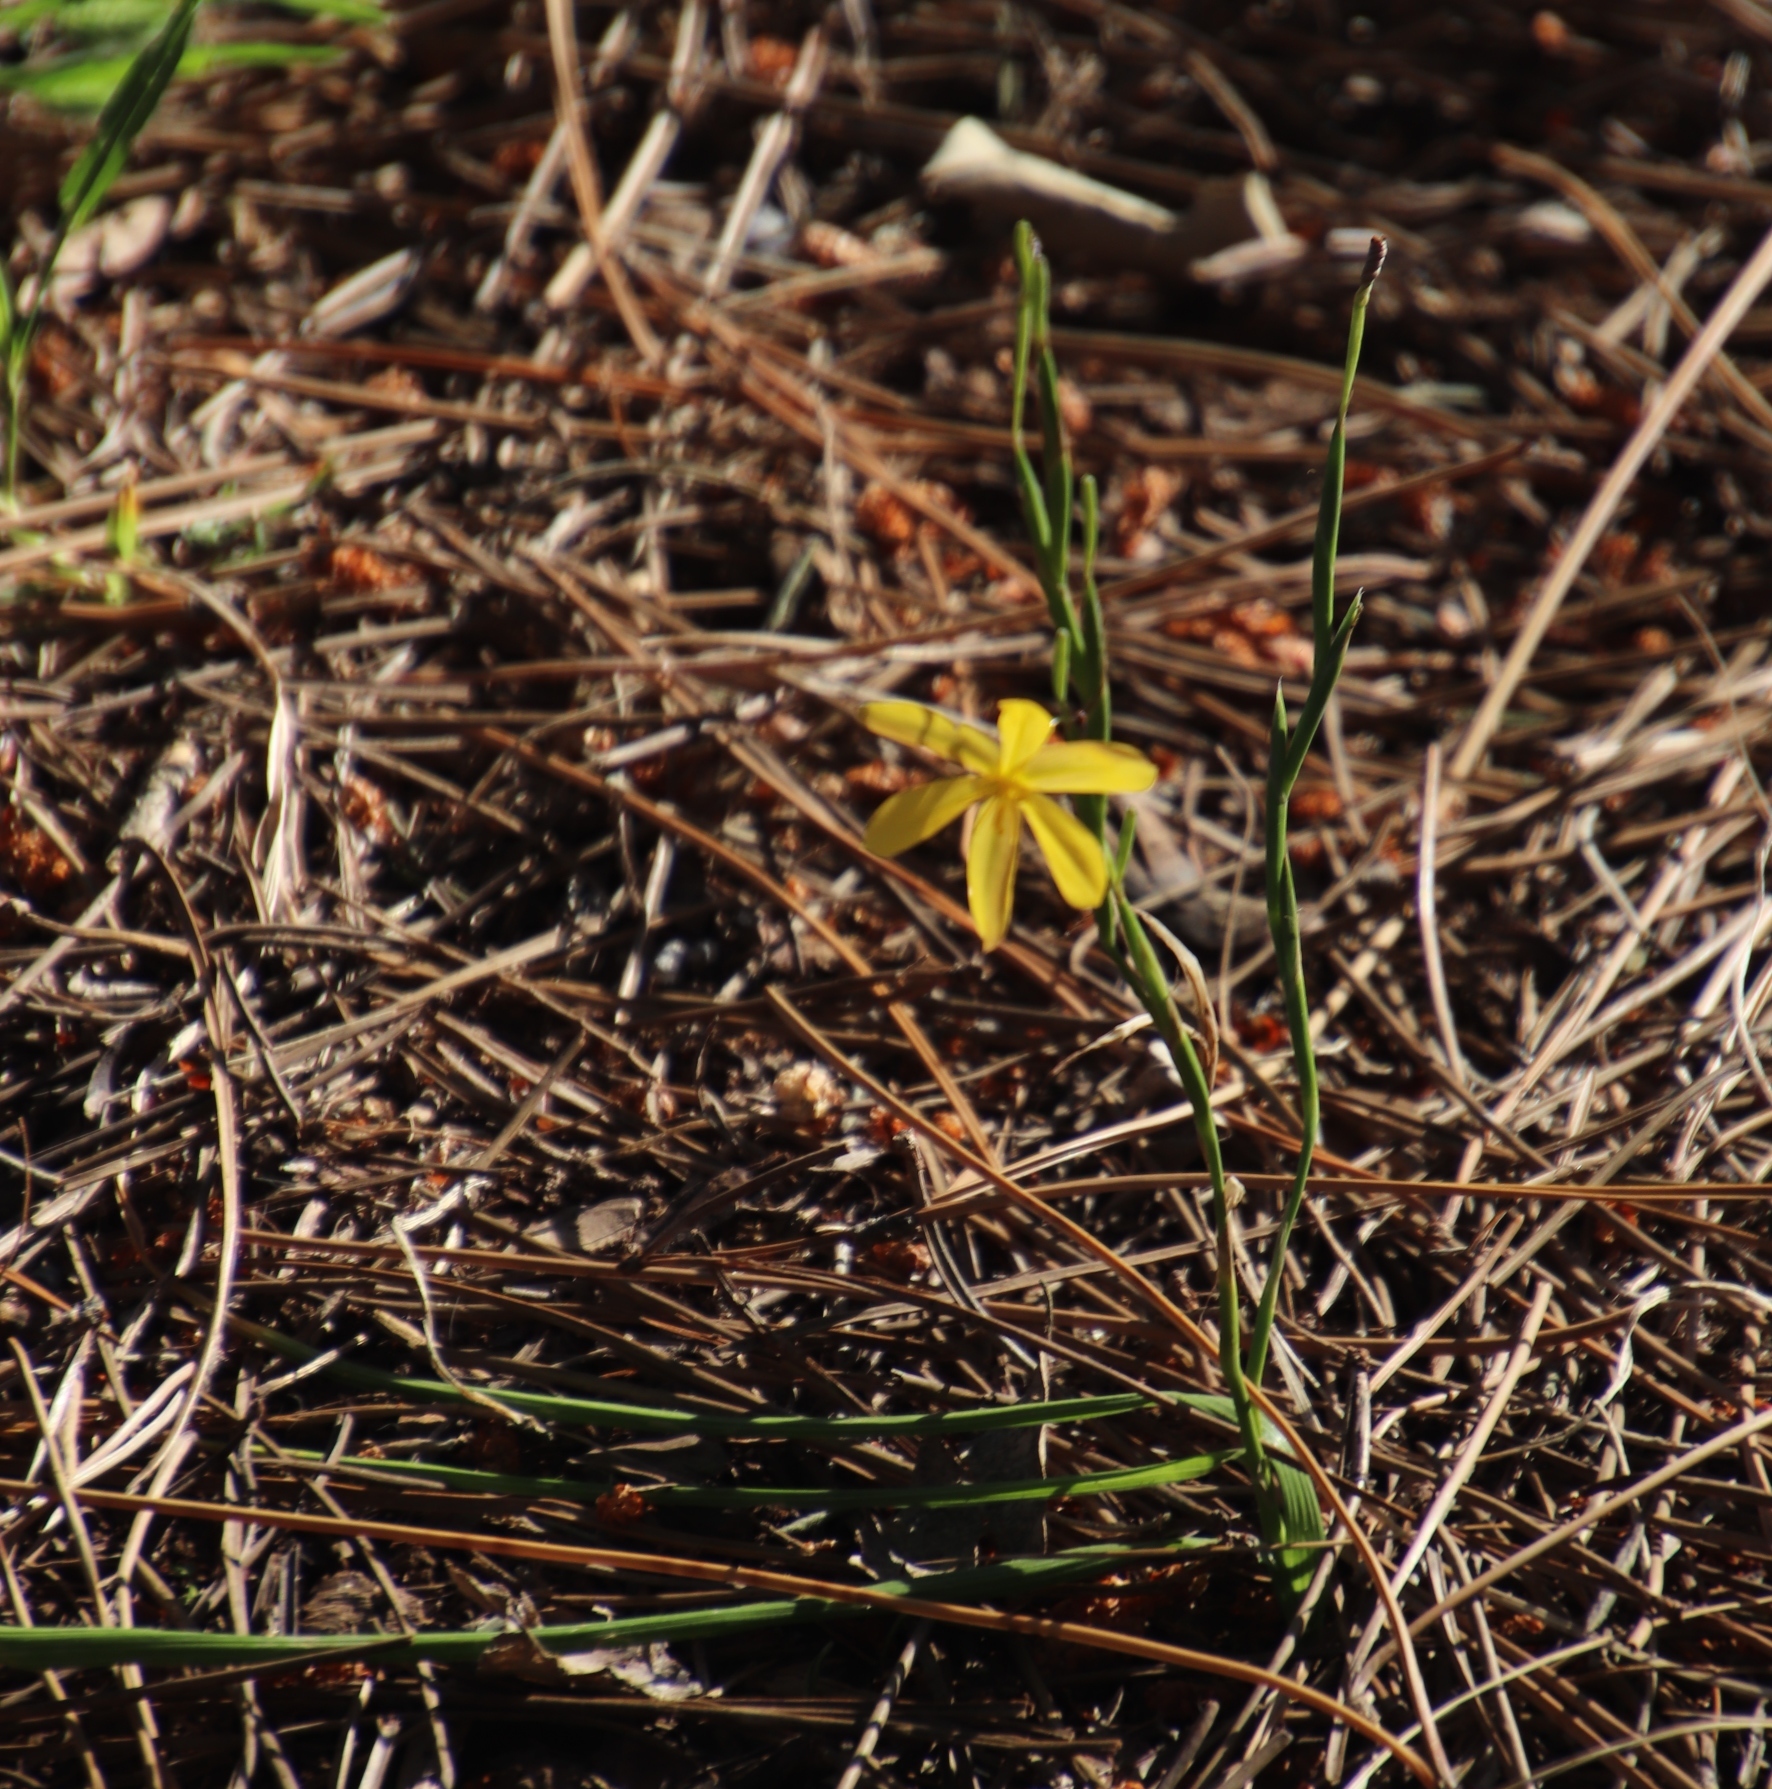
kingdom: Plantae
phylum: Tracheophyta
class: Liliopsida
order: Asparagales
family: Iridaceae
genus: Moraea
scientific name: Moraea lewisiae
